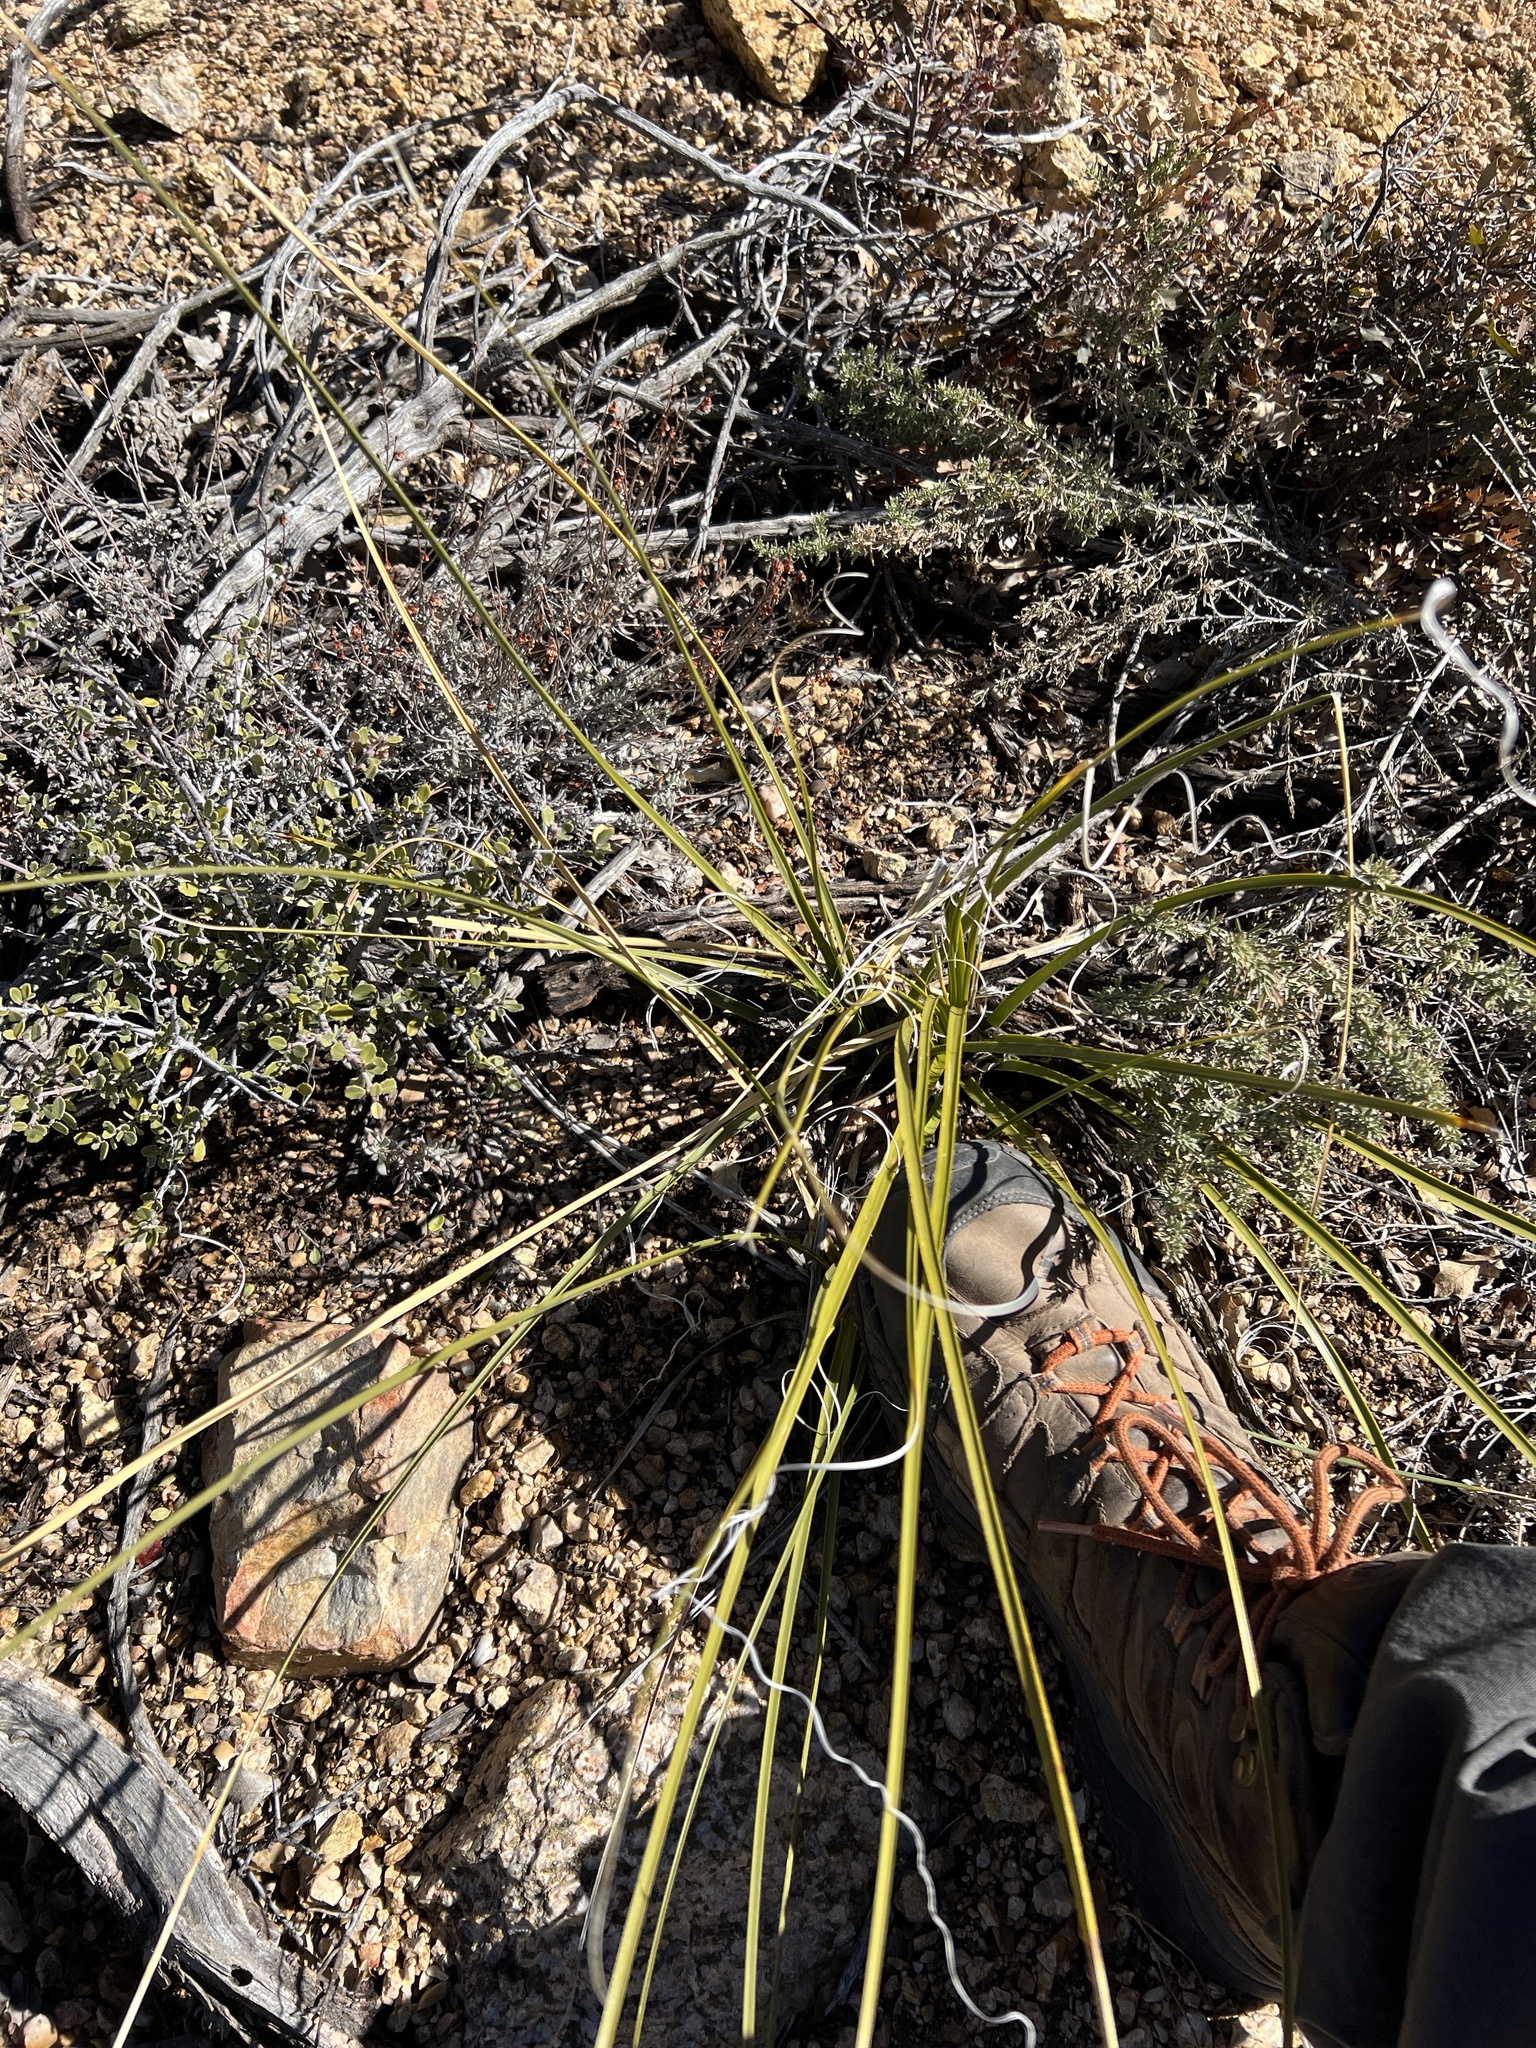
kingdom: Plantae
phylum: Tracheophyta
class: Liliopsida
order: Asparagales
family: Asparagaceae
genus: Nolina
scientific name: Nolina microcarpa
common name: Bear-grass
